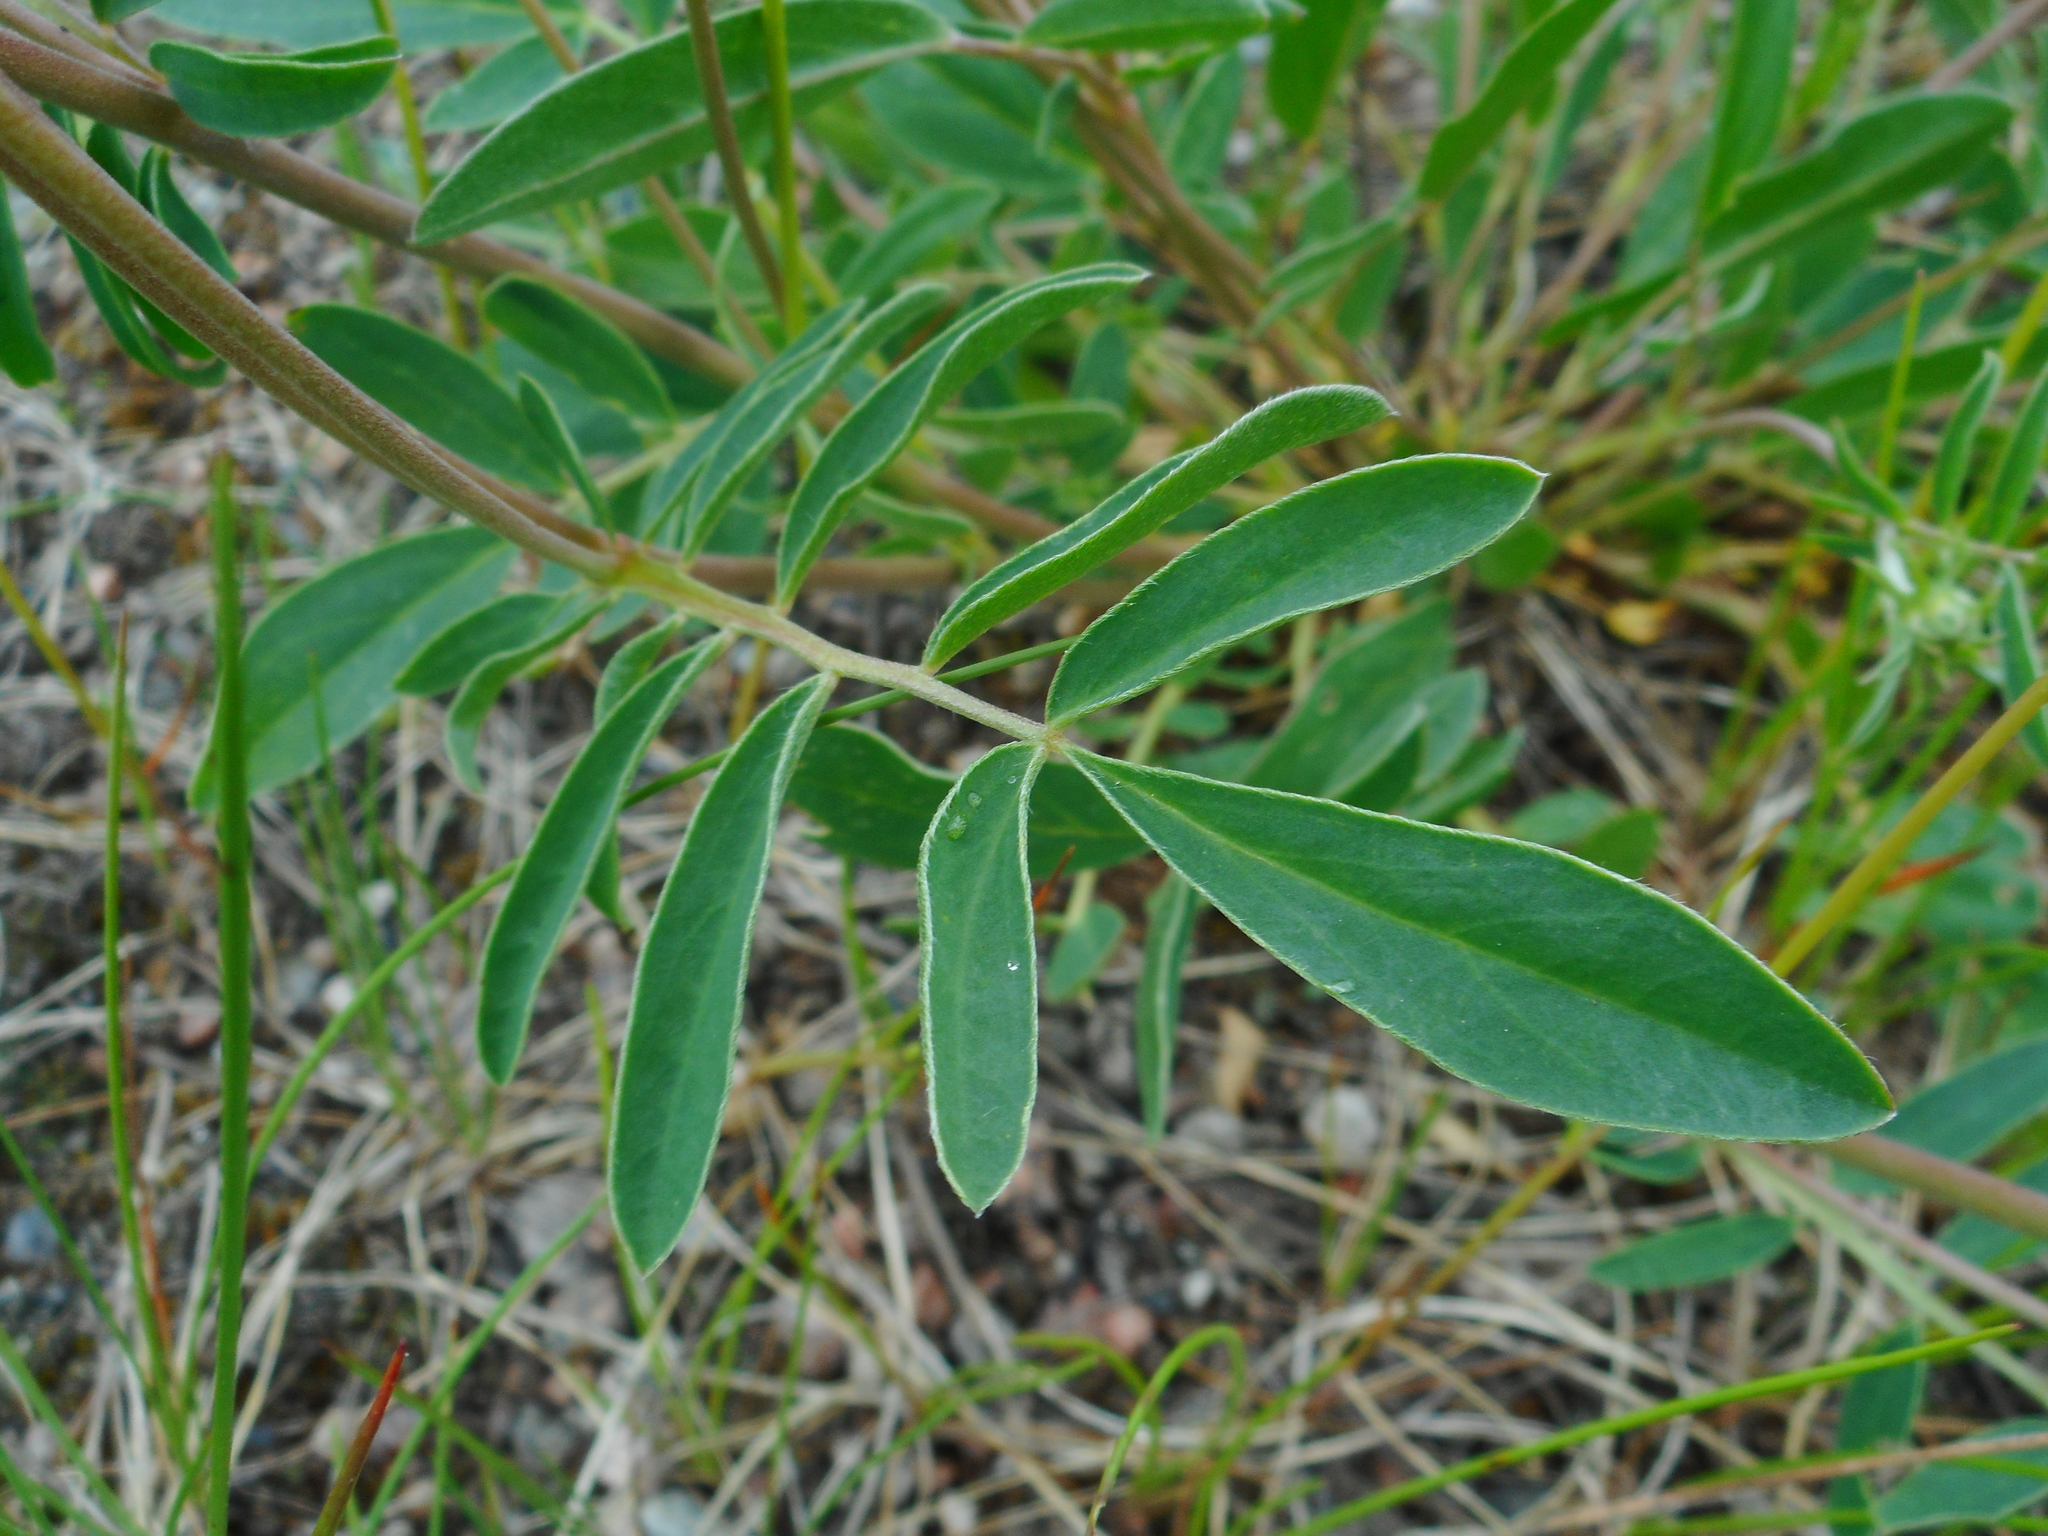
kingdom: Plantae
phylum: Tracheophyta
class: Magnoliopsida
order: Fabales
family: Fabaceae
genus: Anthyllis
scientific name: Anthyllis vulneraria
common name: Kidney vetch
